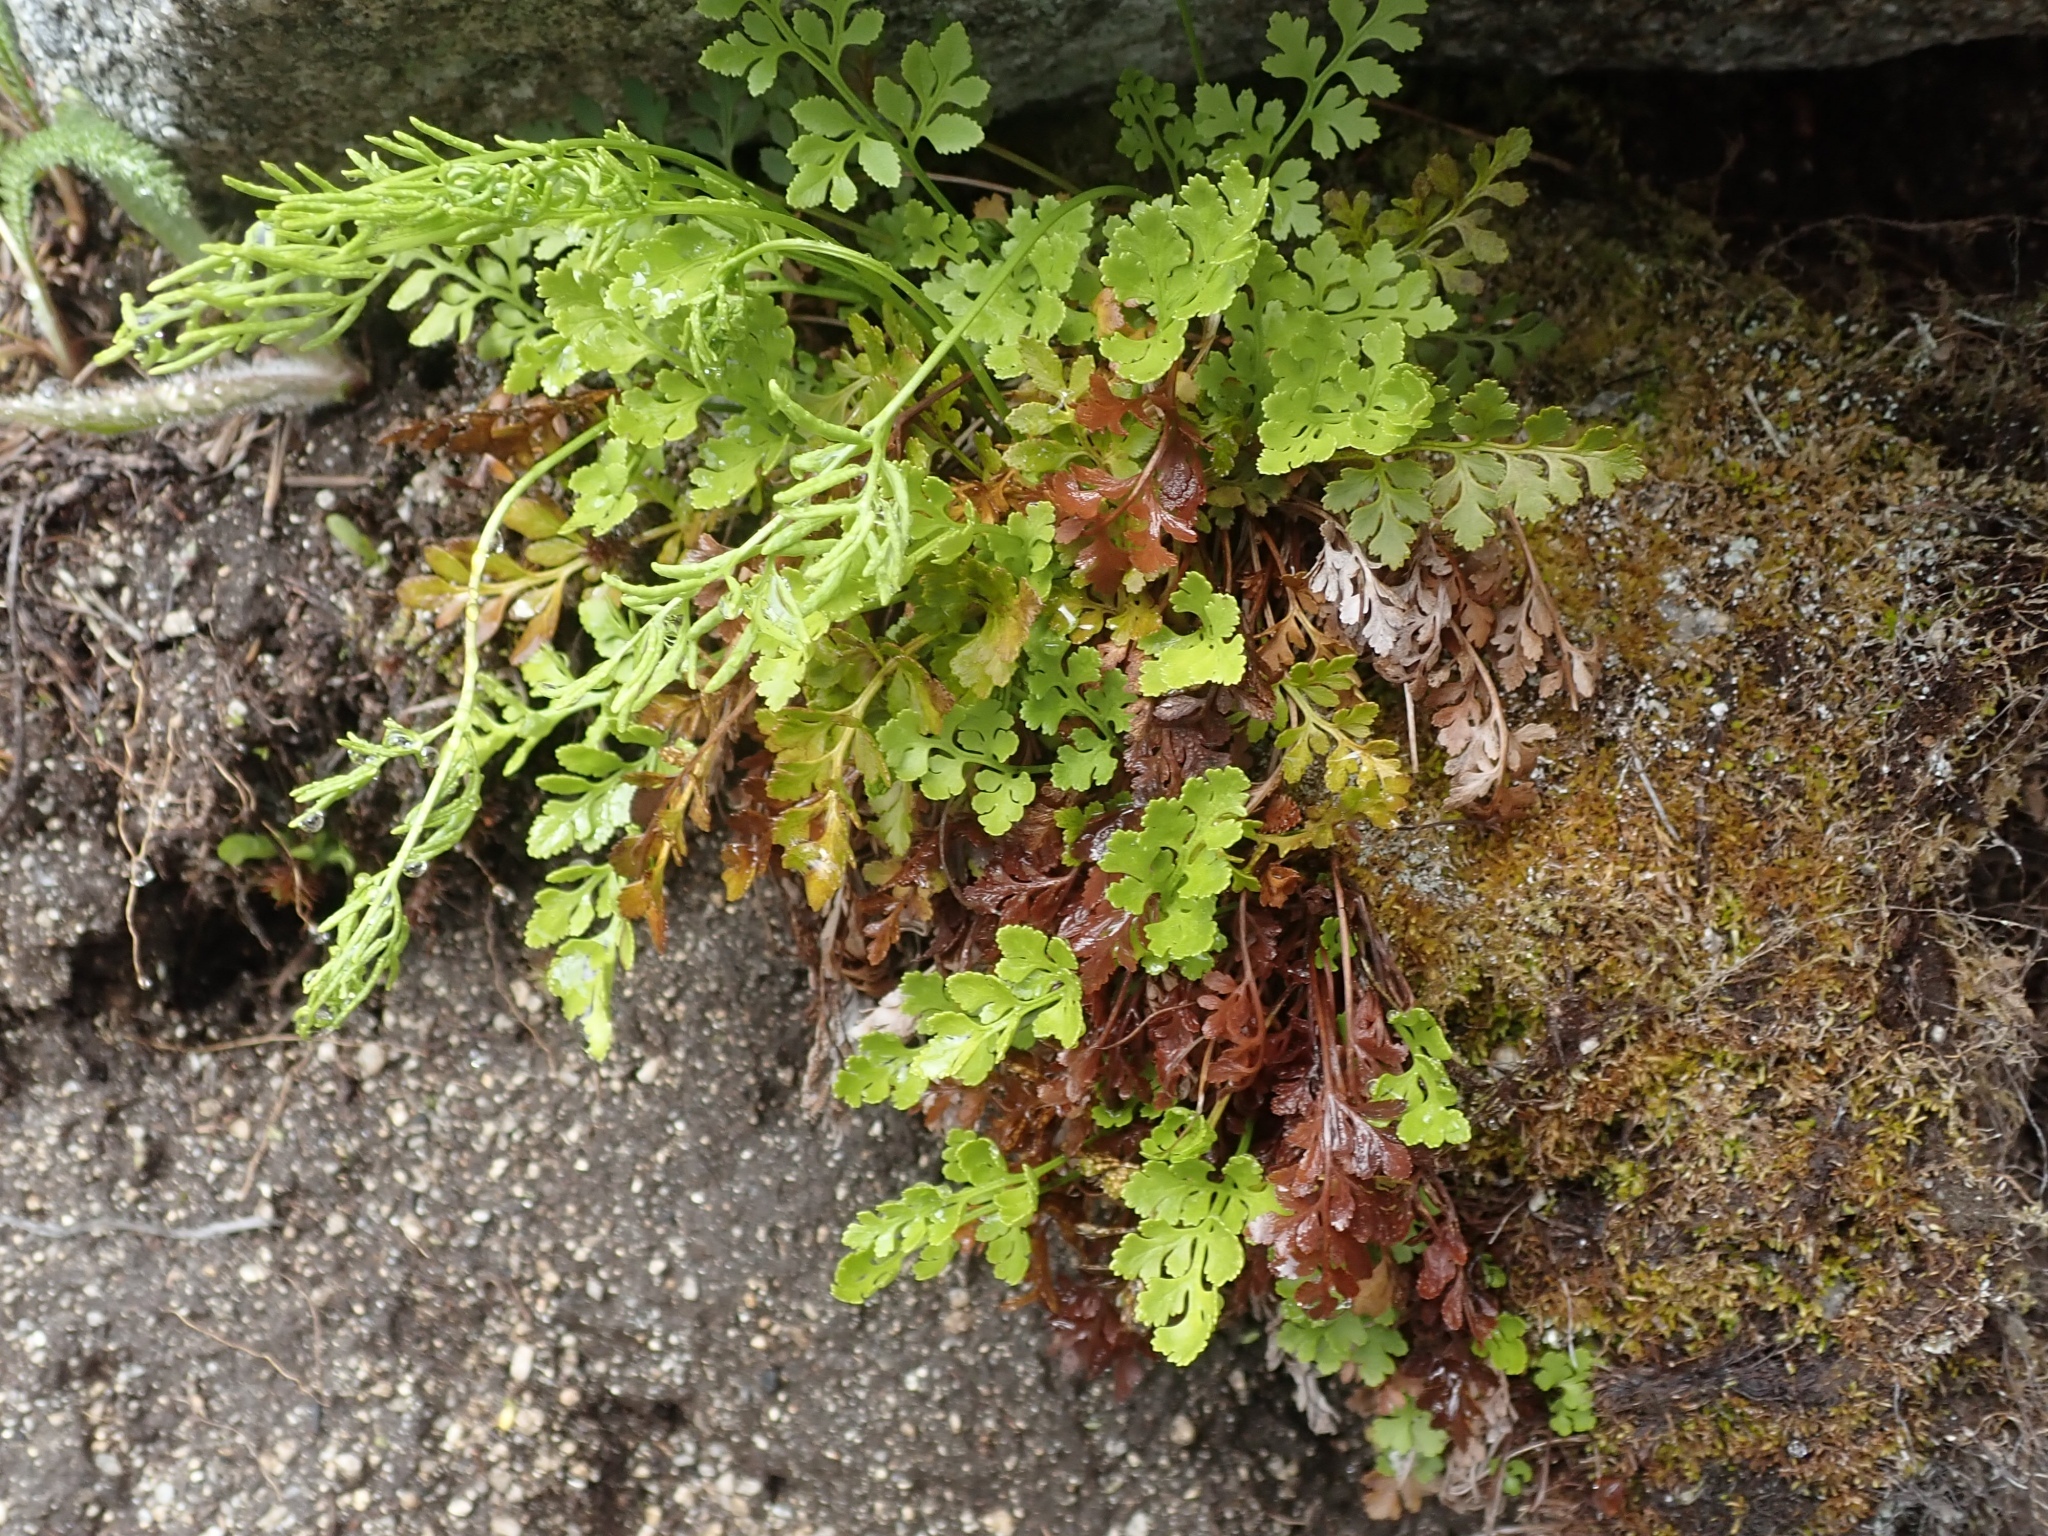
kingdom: Plantae
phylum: Tracheophyta
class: Polypodiopsida
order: Polypodiales
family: Pteridaceae
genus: Cryptogramma
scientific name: Cryptogramma acrostichoides
